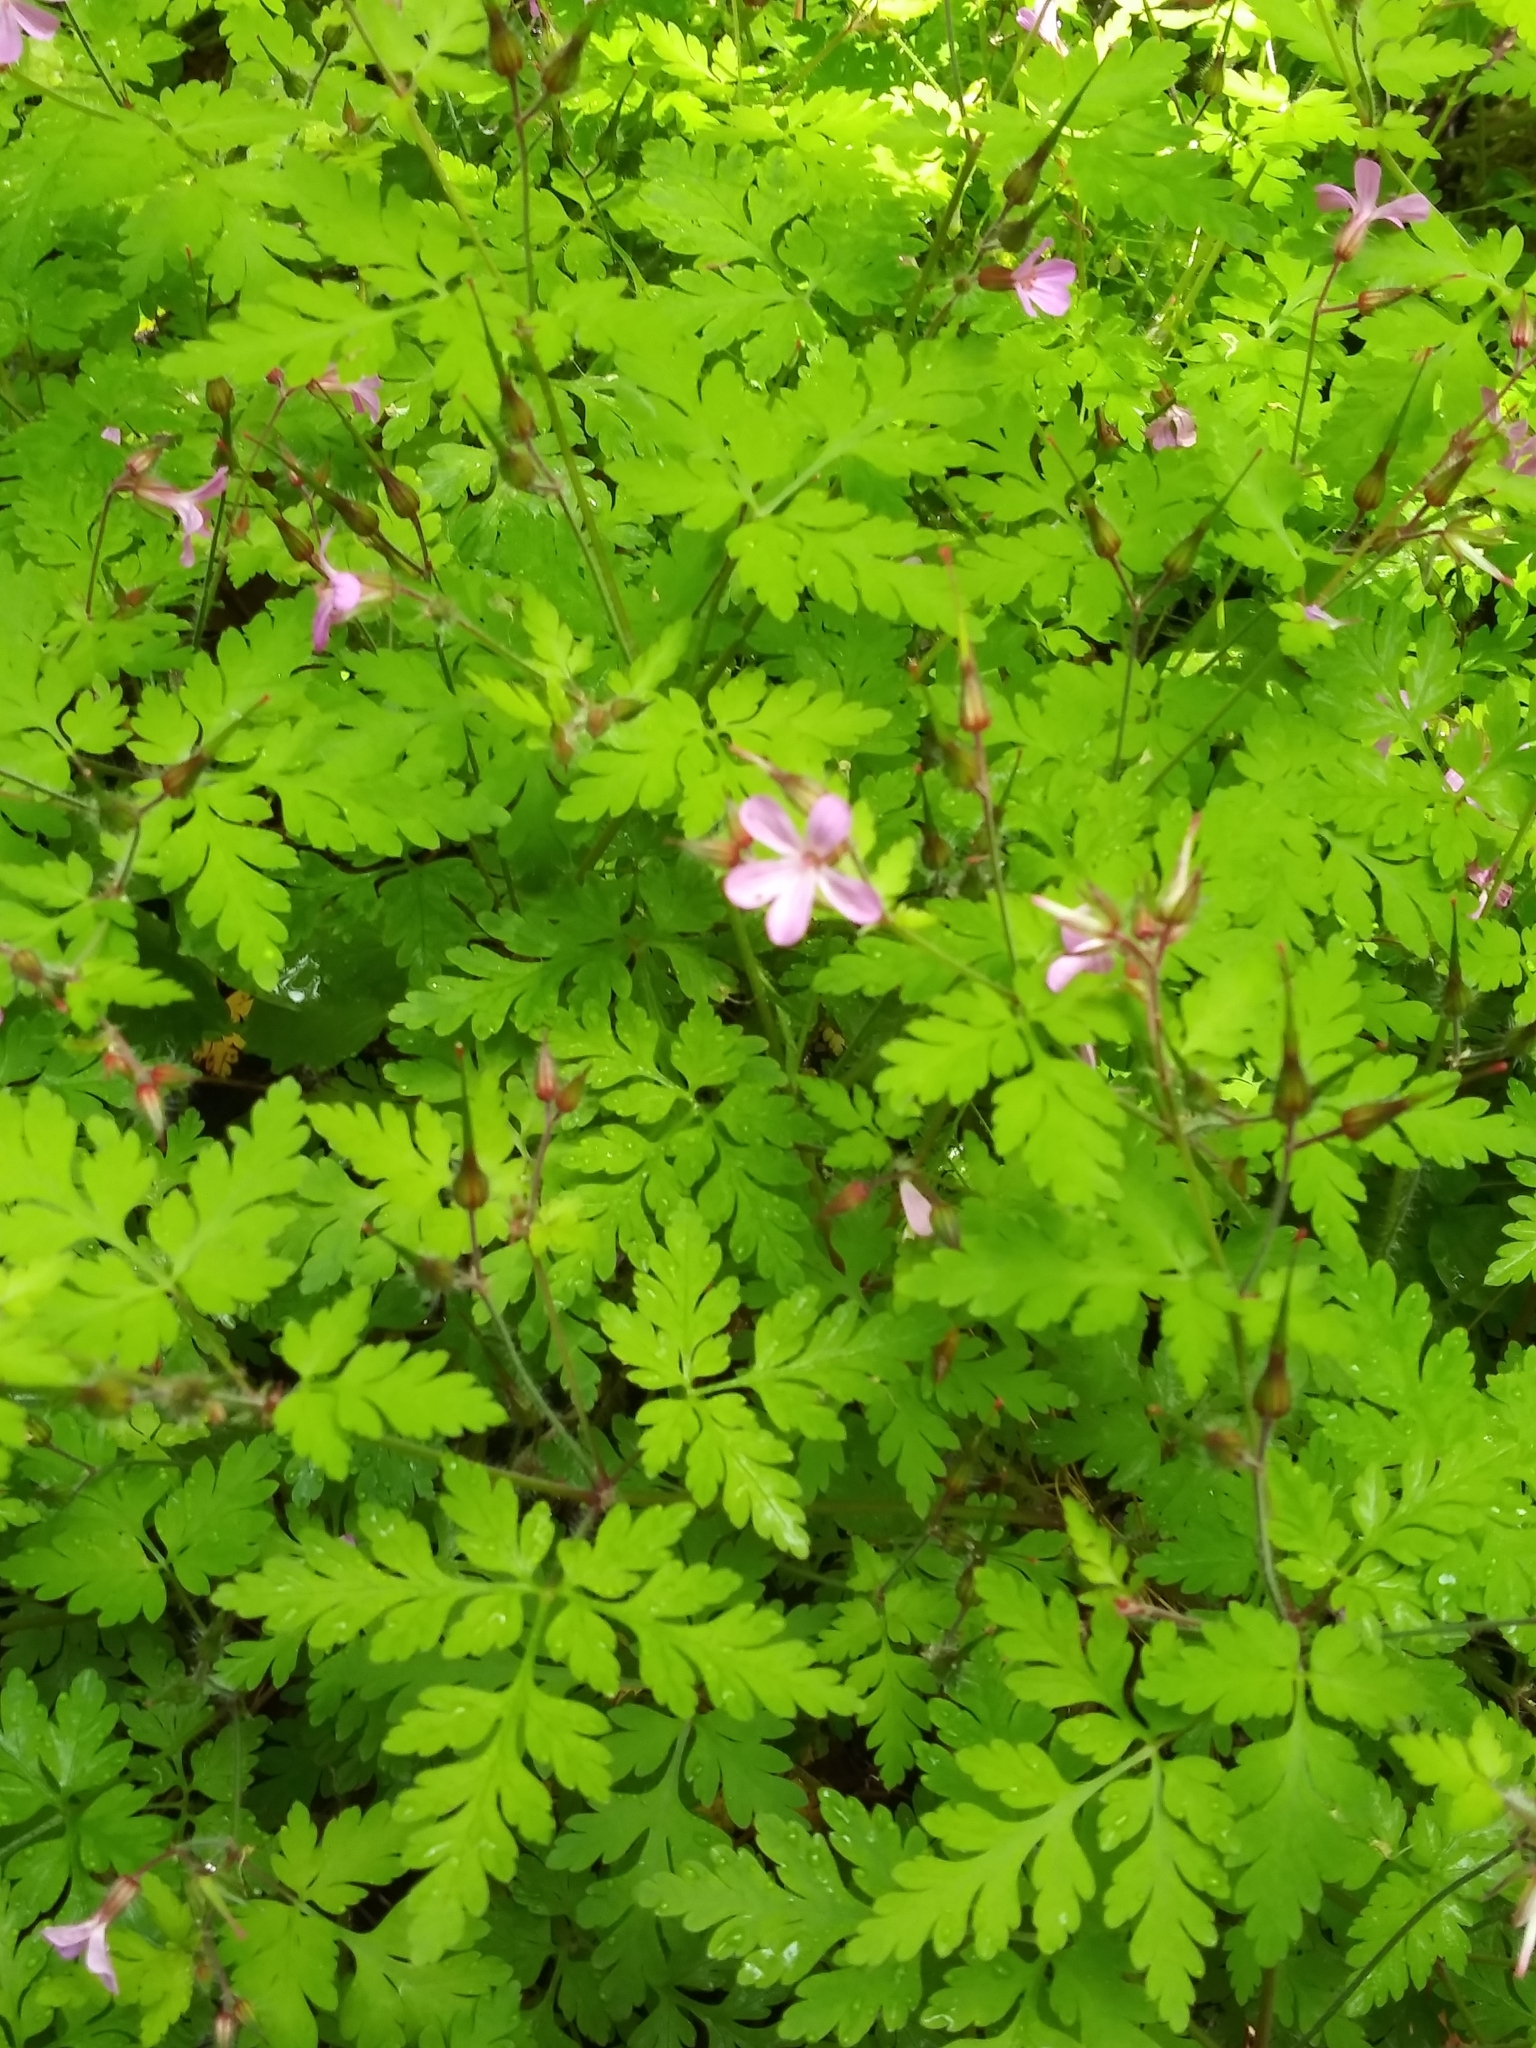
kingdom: Plantae
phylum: Tracheophyta
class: Magnoliopsida
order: Geraniales
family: Geraniaceae
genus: Geranium
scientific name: Geranium robertianum
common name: Herb-robert
